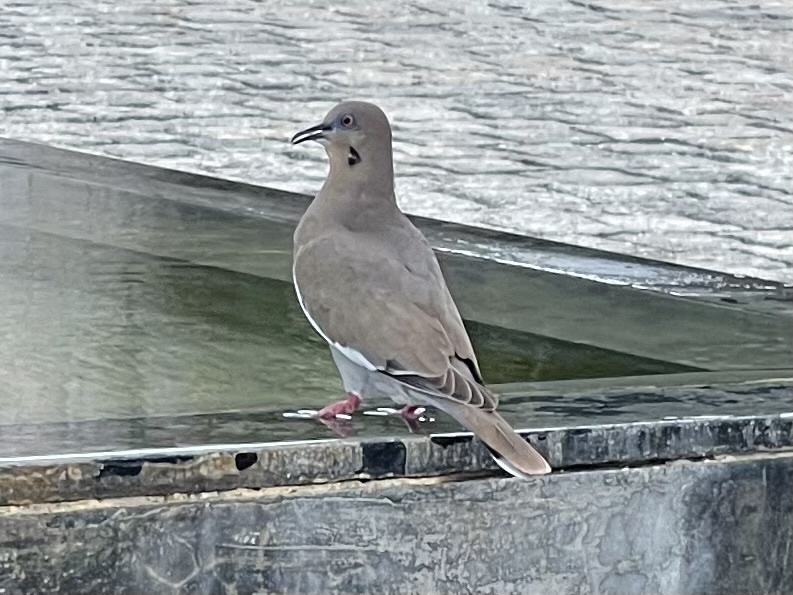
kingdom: Animalia
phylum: Chordata
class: Aves
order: Columbiformes
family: Columbidae
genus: Zenaida
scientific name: Zenaida asiatica
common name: White-winged dove
